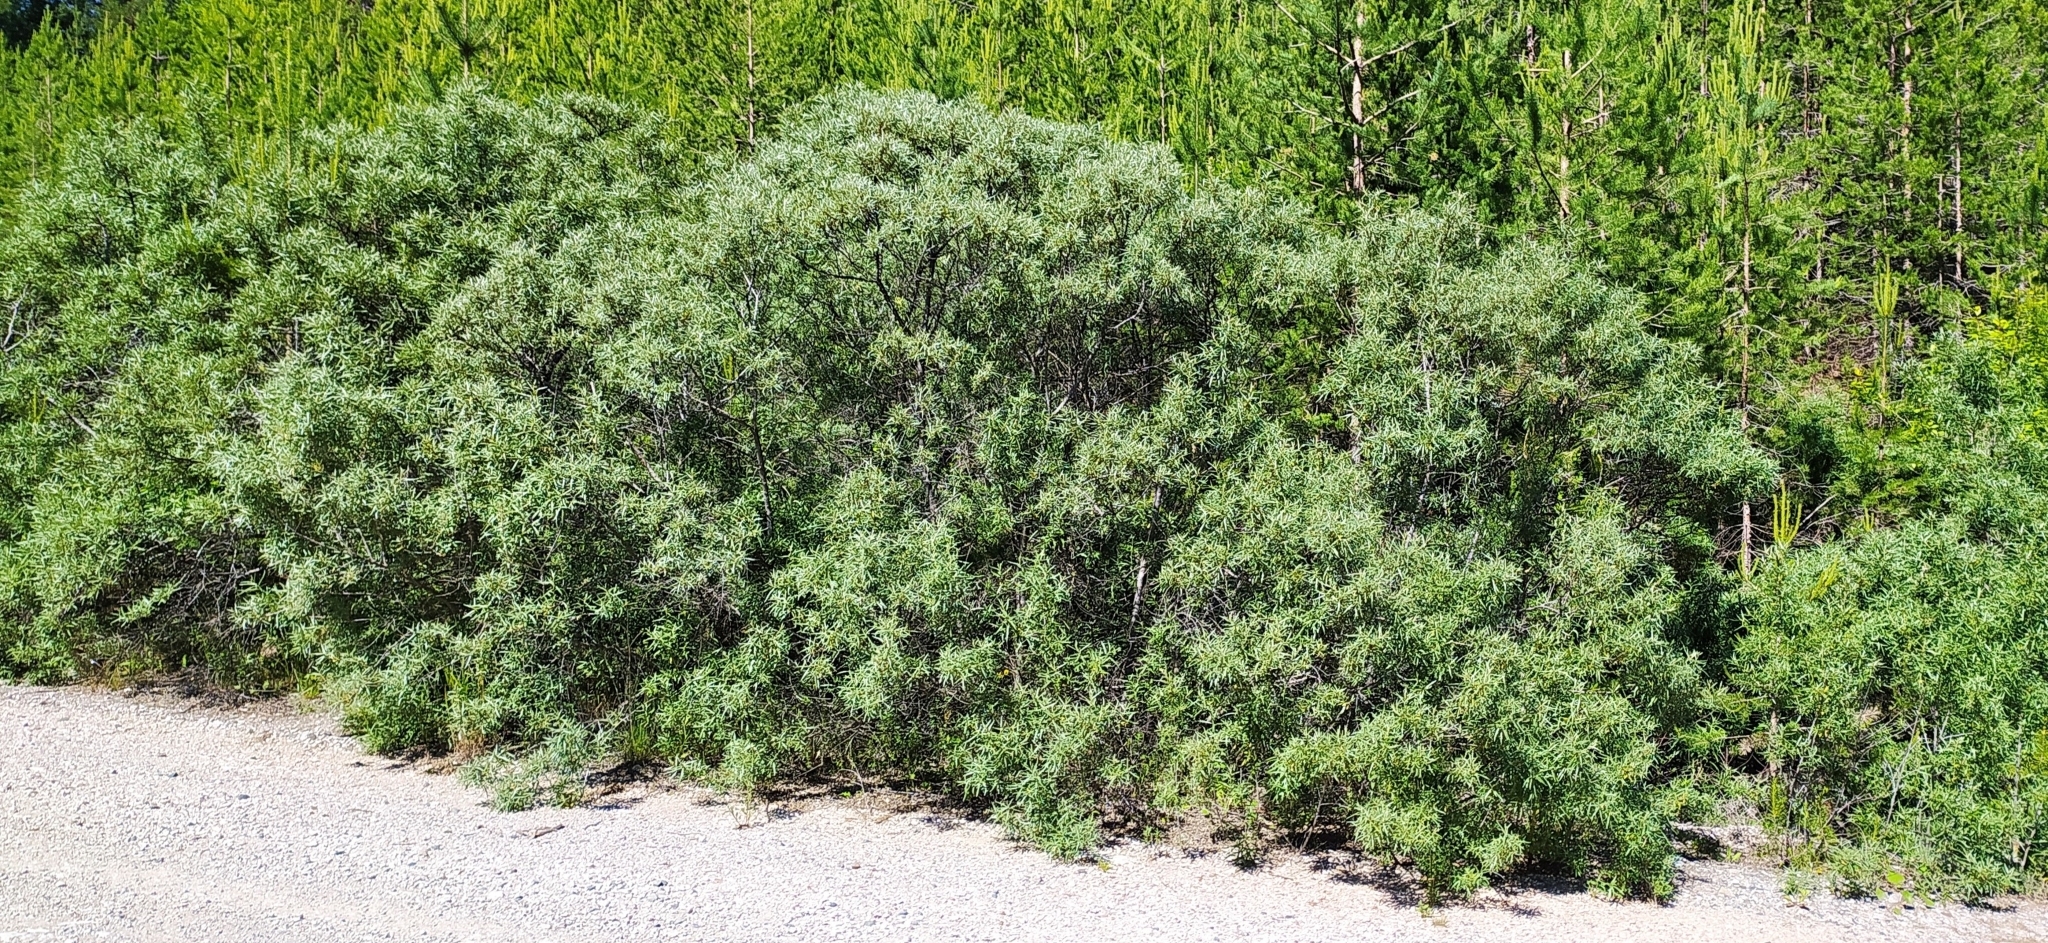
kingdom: Plantae
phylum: Tracheophyta
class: Magnoliopsida
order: Rosales
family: Elaeagnaceae
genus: Hippophae
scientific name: Hippophae rhamnoides
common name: Sea-buckthorn
